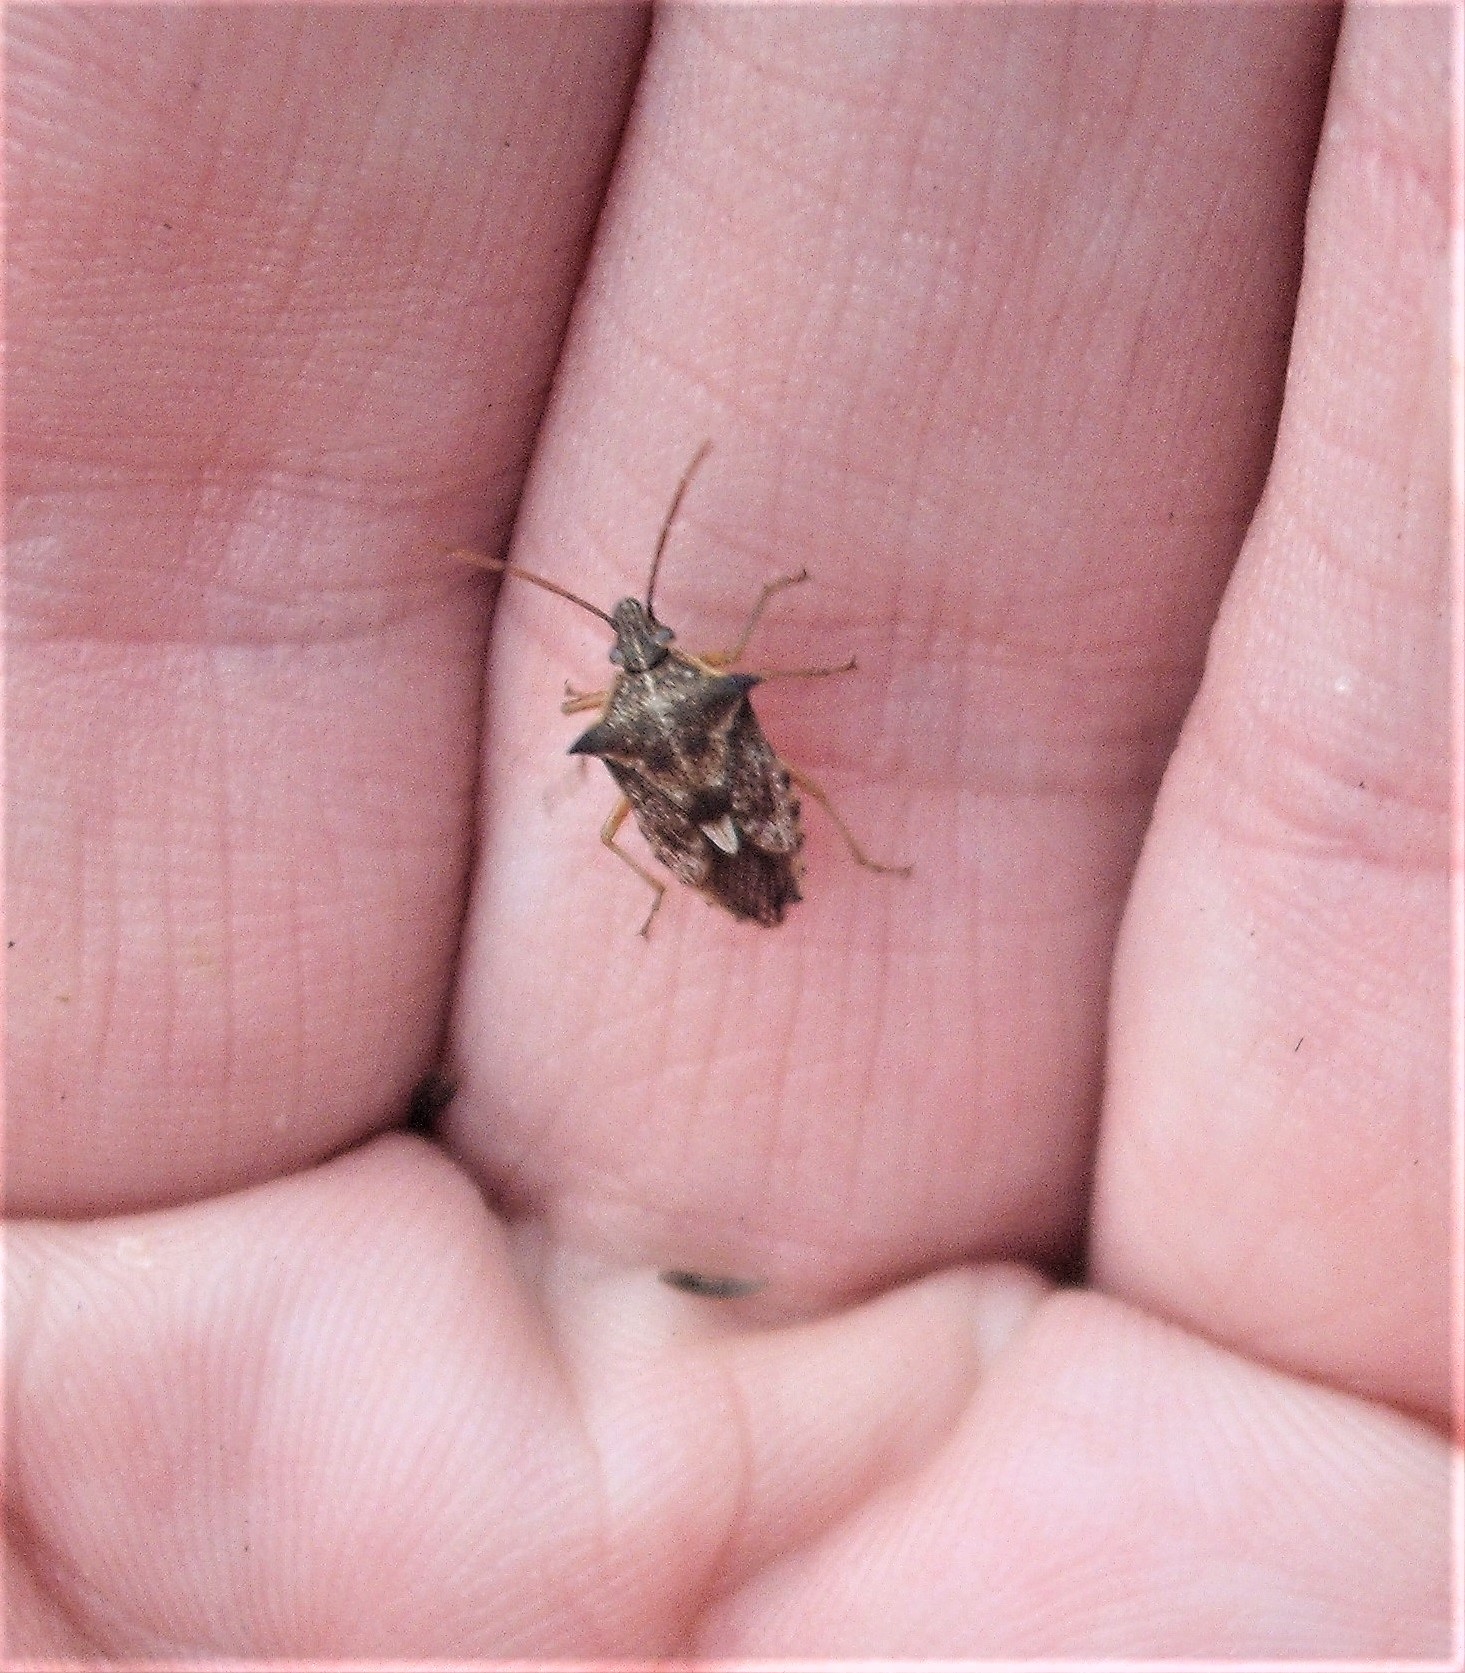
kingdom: Animalia
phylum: Arthropoda
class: Insecta
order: Hemiptera
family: Pentatomidae
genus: Oechalia
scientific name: Oechalia schellenbergii
